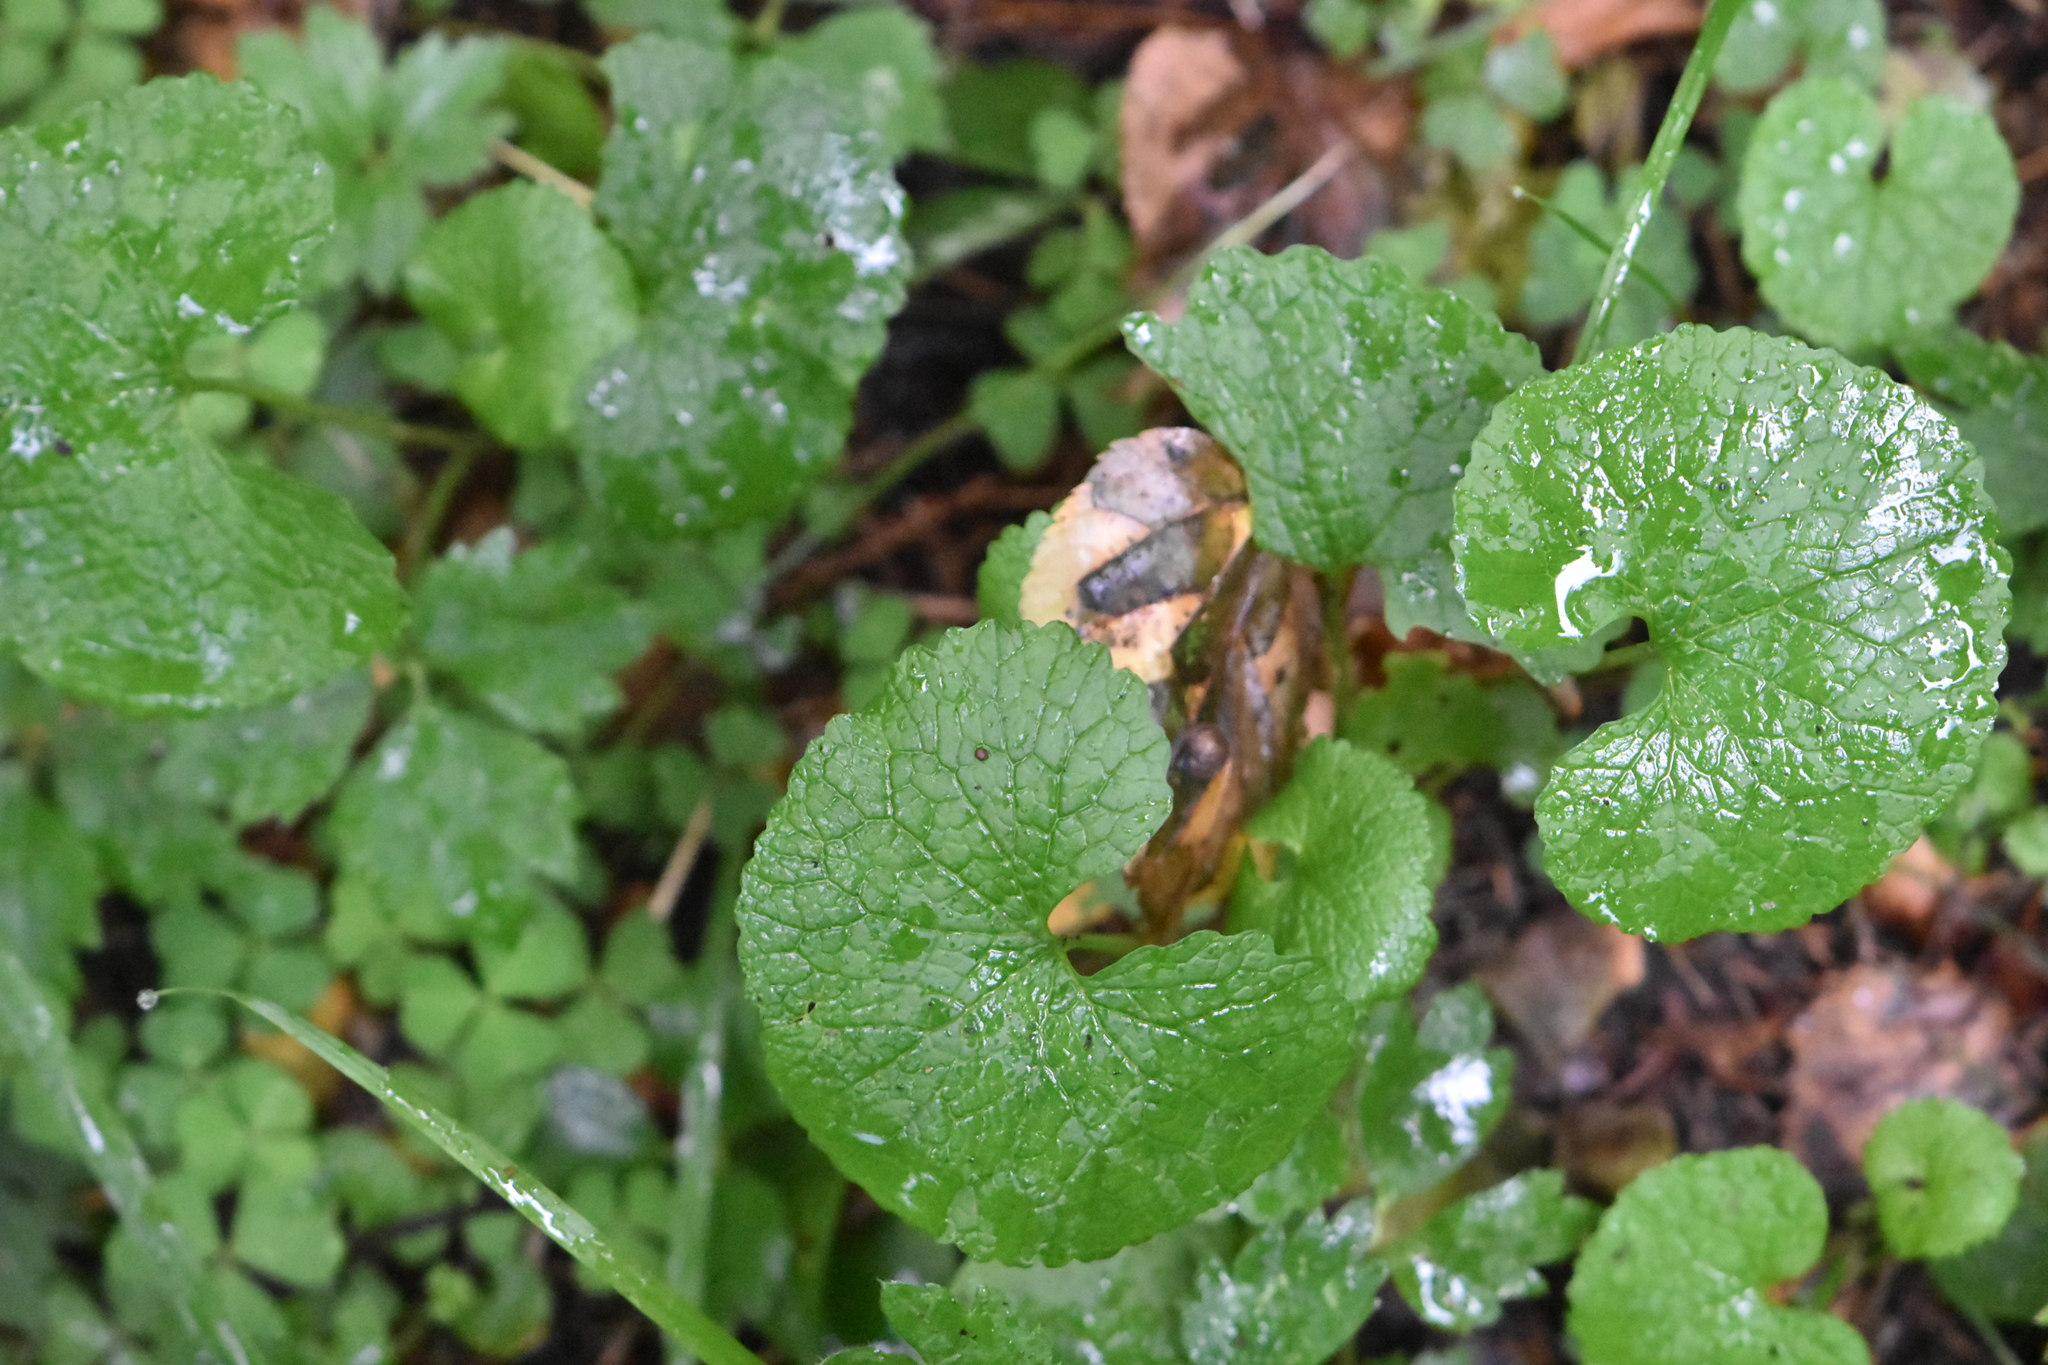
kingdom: Plantae
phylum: Tracheophyta
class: Magnoliopsida
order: Brassicales
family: Brassicaceae
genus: Alliaria
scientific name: Alliaria petiolata
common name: Garlic mustard
